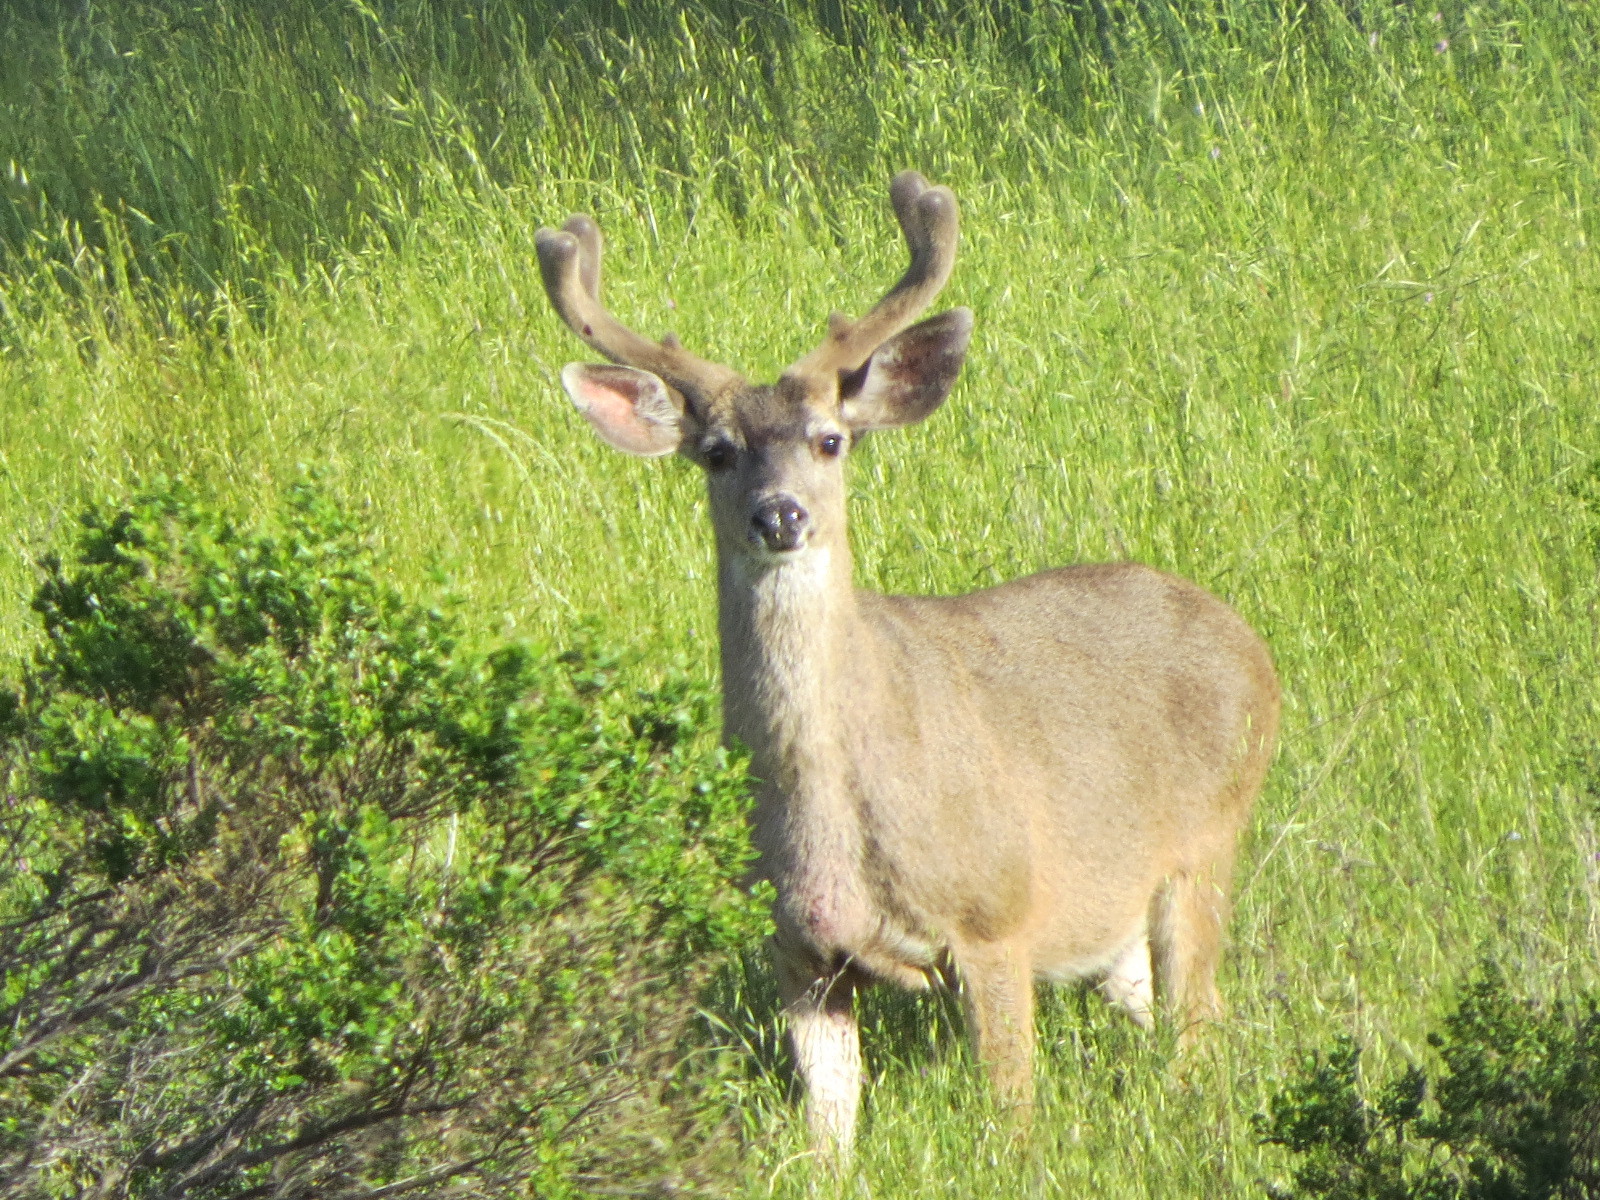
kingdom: Animalia
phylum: Chordata
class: Mammalia
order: Artiodactyla
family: Cervidae
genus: Odocoileus
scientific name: Odocoileus hemionus
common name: Mule deer
